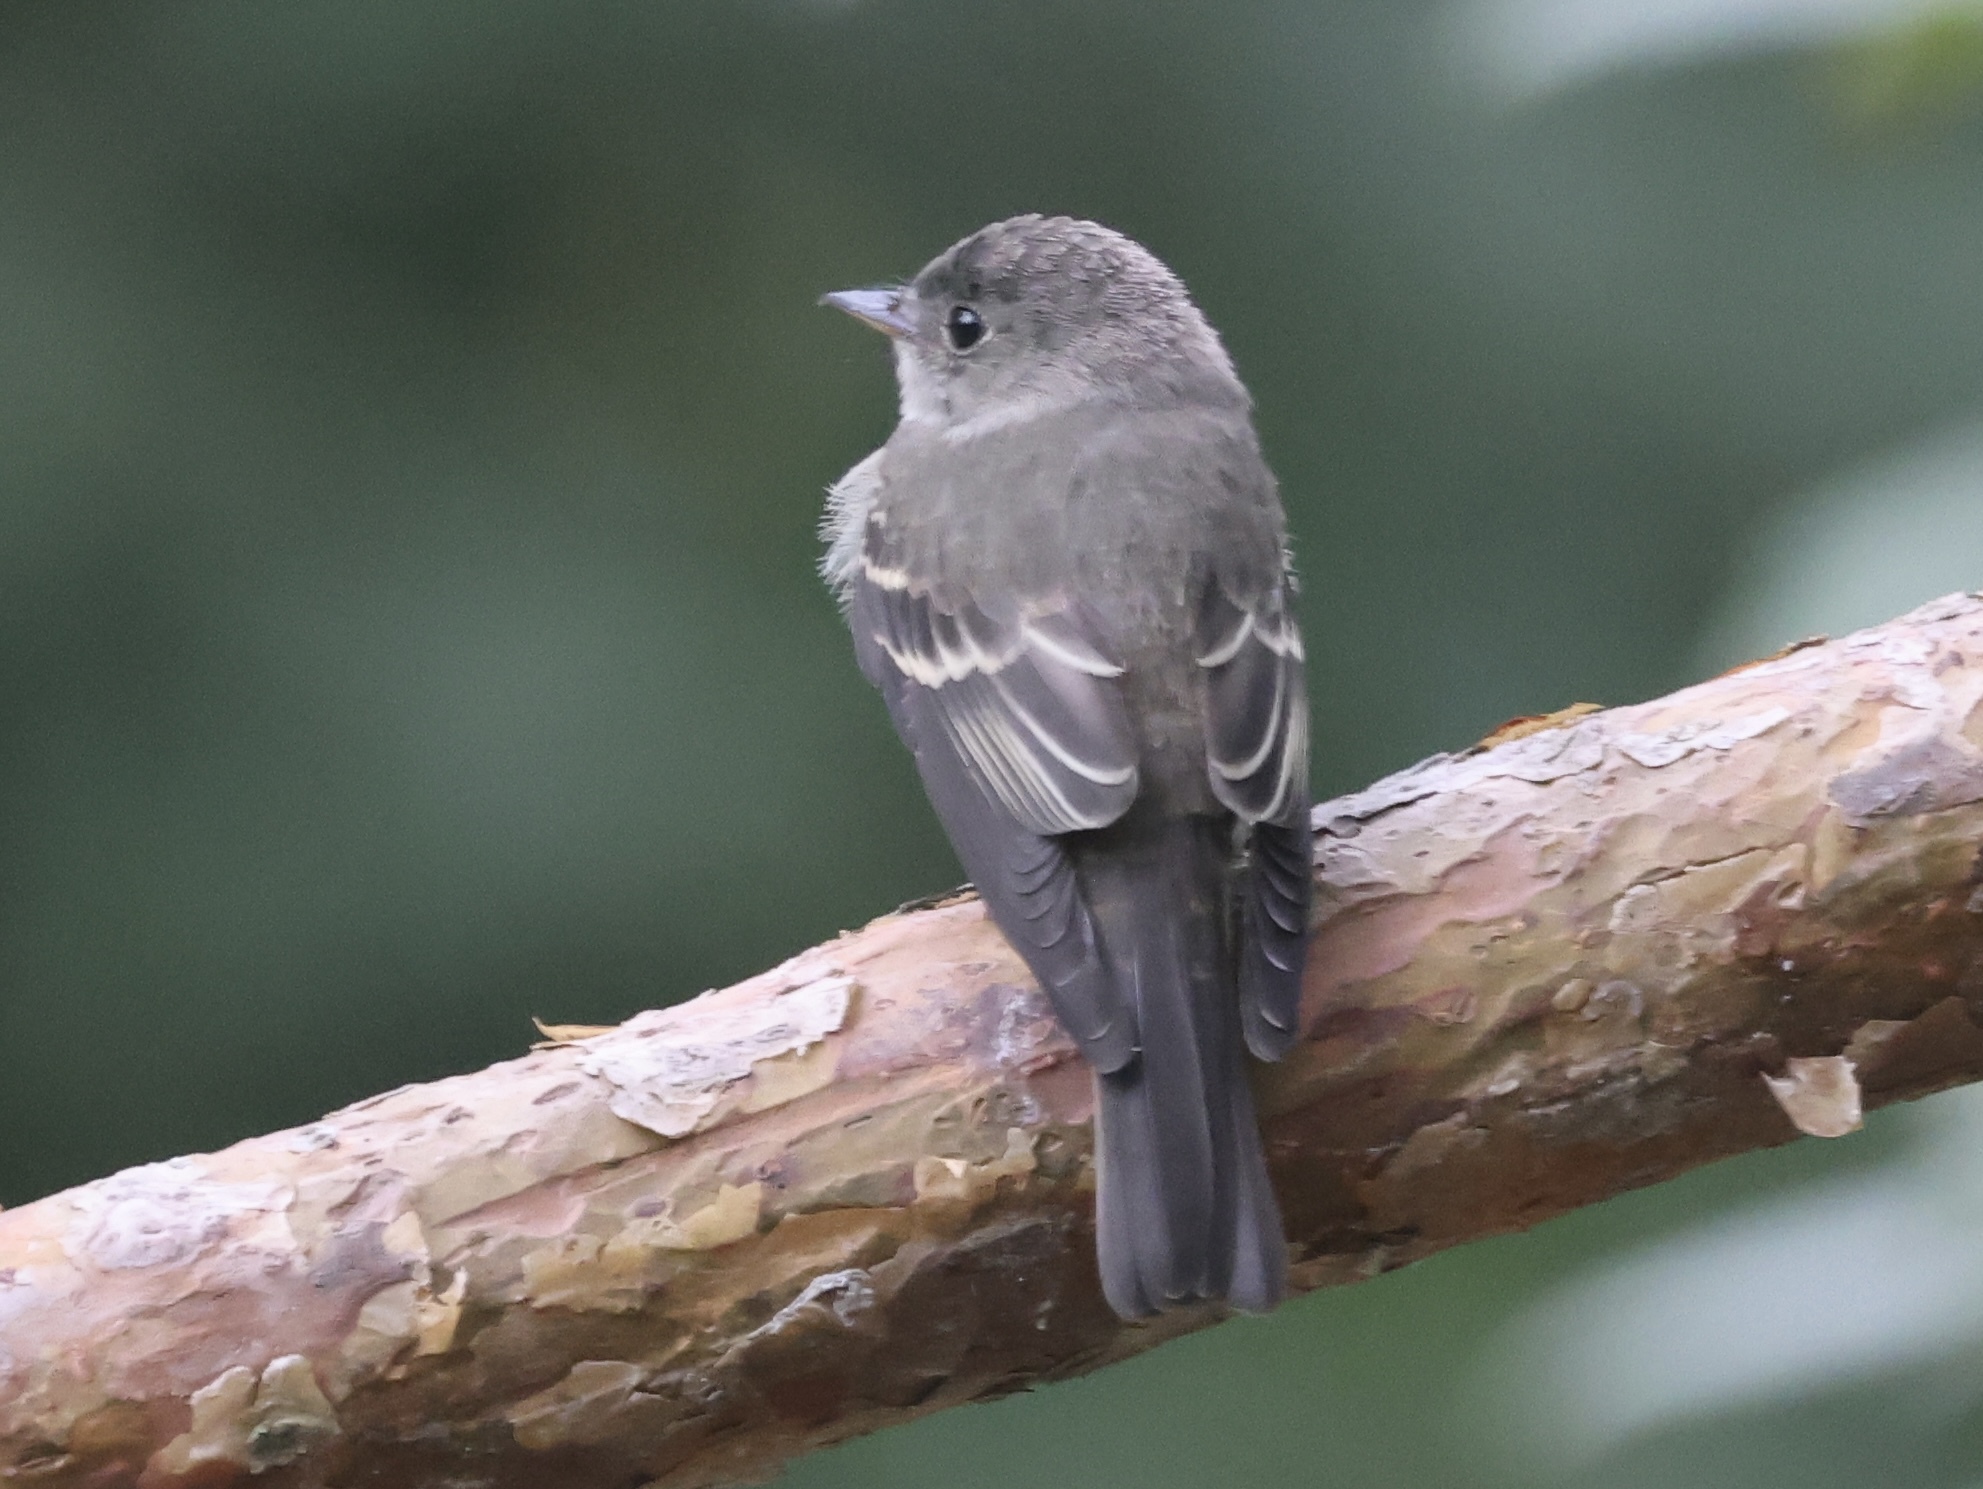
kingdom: Animalia
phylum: Chordata
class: Aves
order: Passeriformes
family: Tyrannidae
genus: Contopus
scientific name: Contopus virens
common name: Eastern wood-pewee
